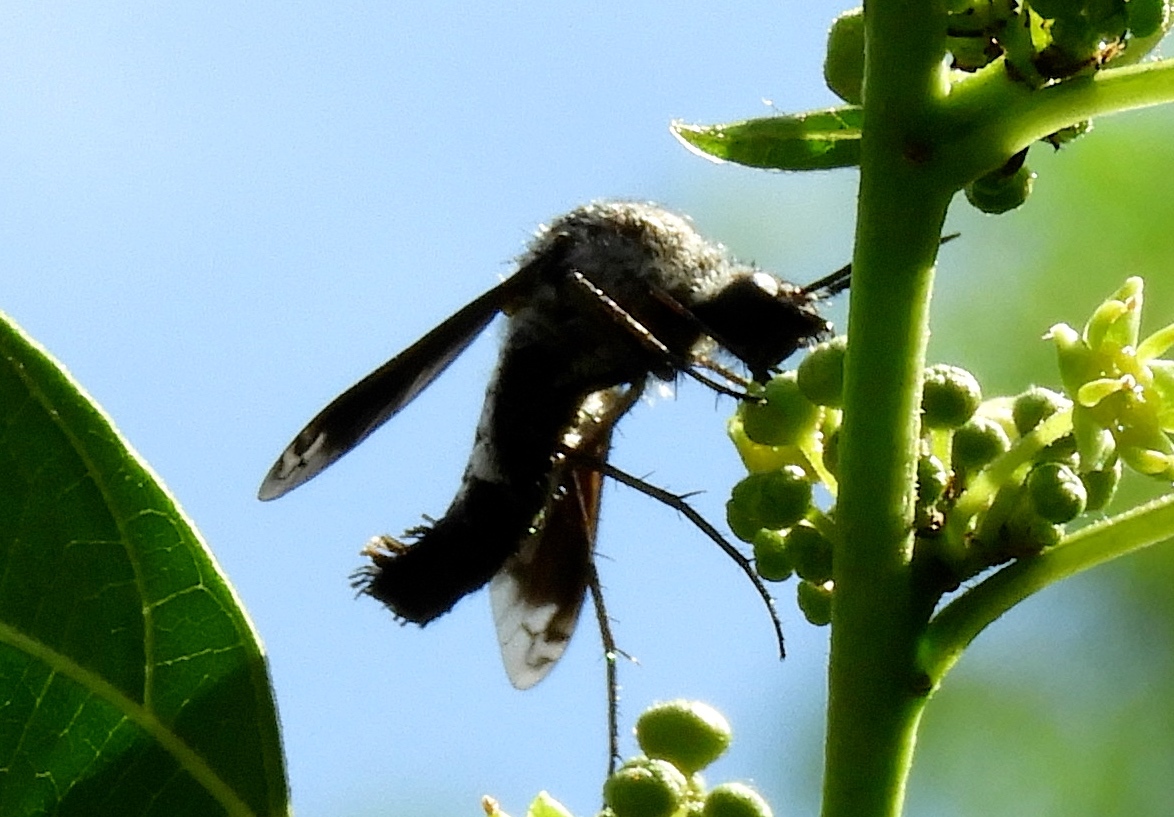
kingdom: Animalia
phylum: Arthropoda
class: Insecta
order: Diptera
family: Bombyliidae
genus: Lepidophora
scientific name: Lepidophora vetusta
